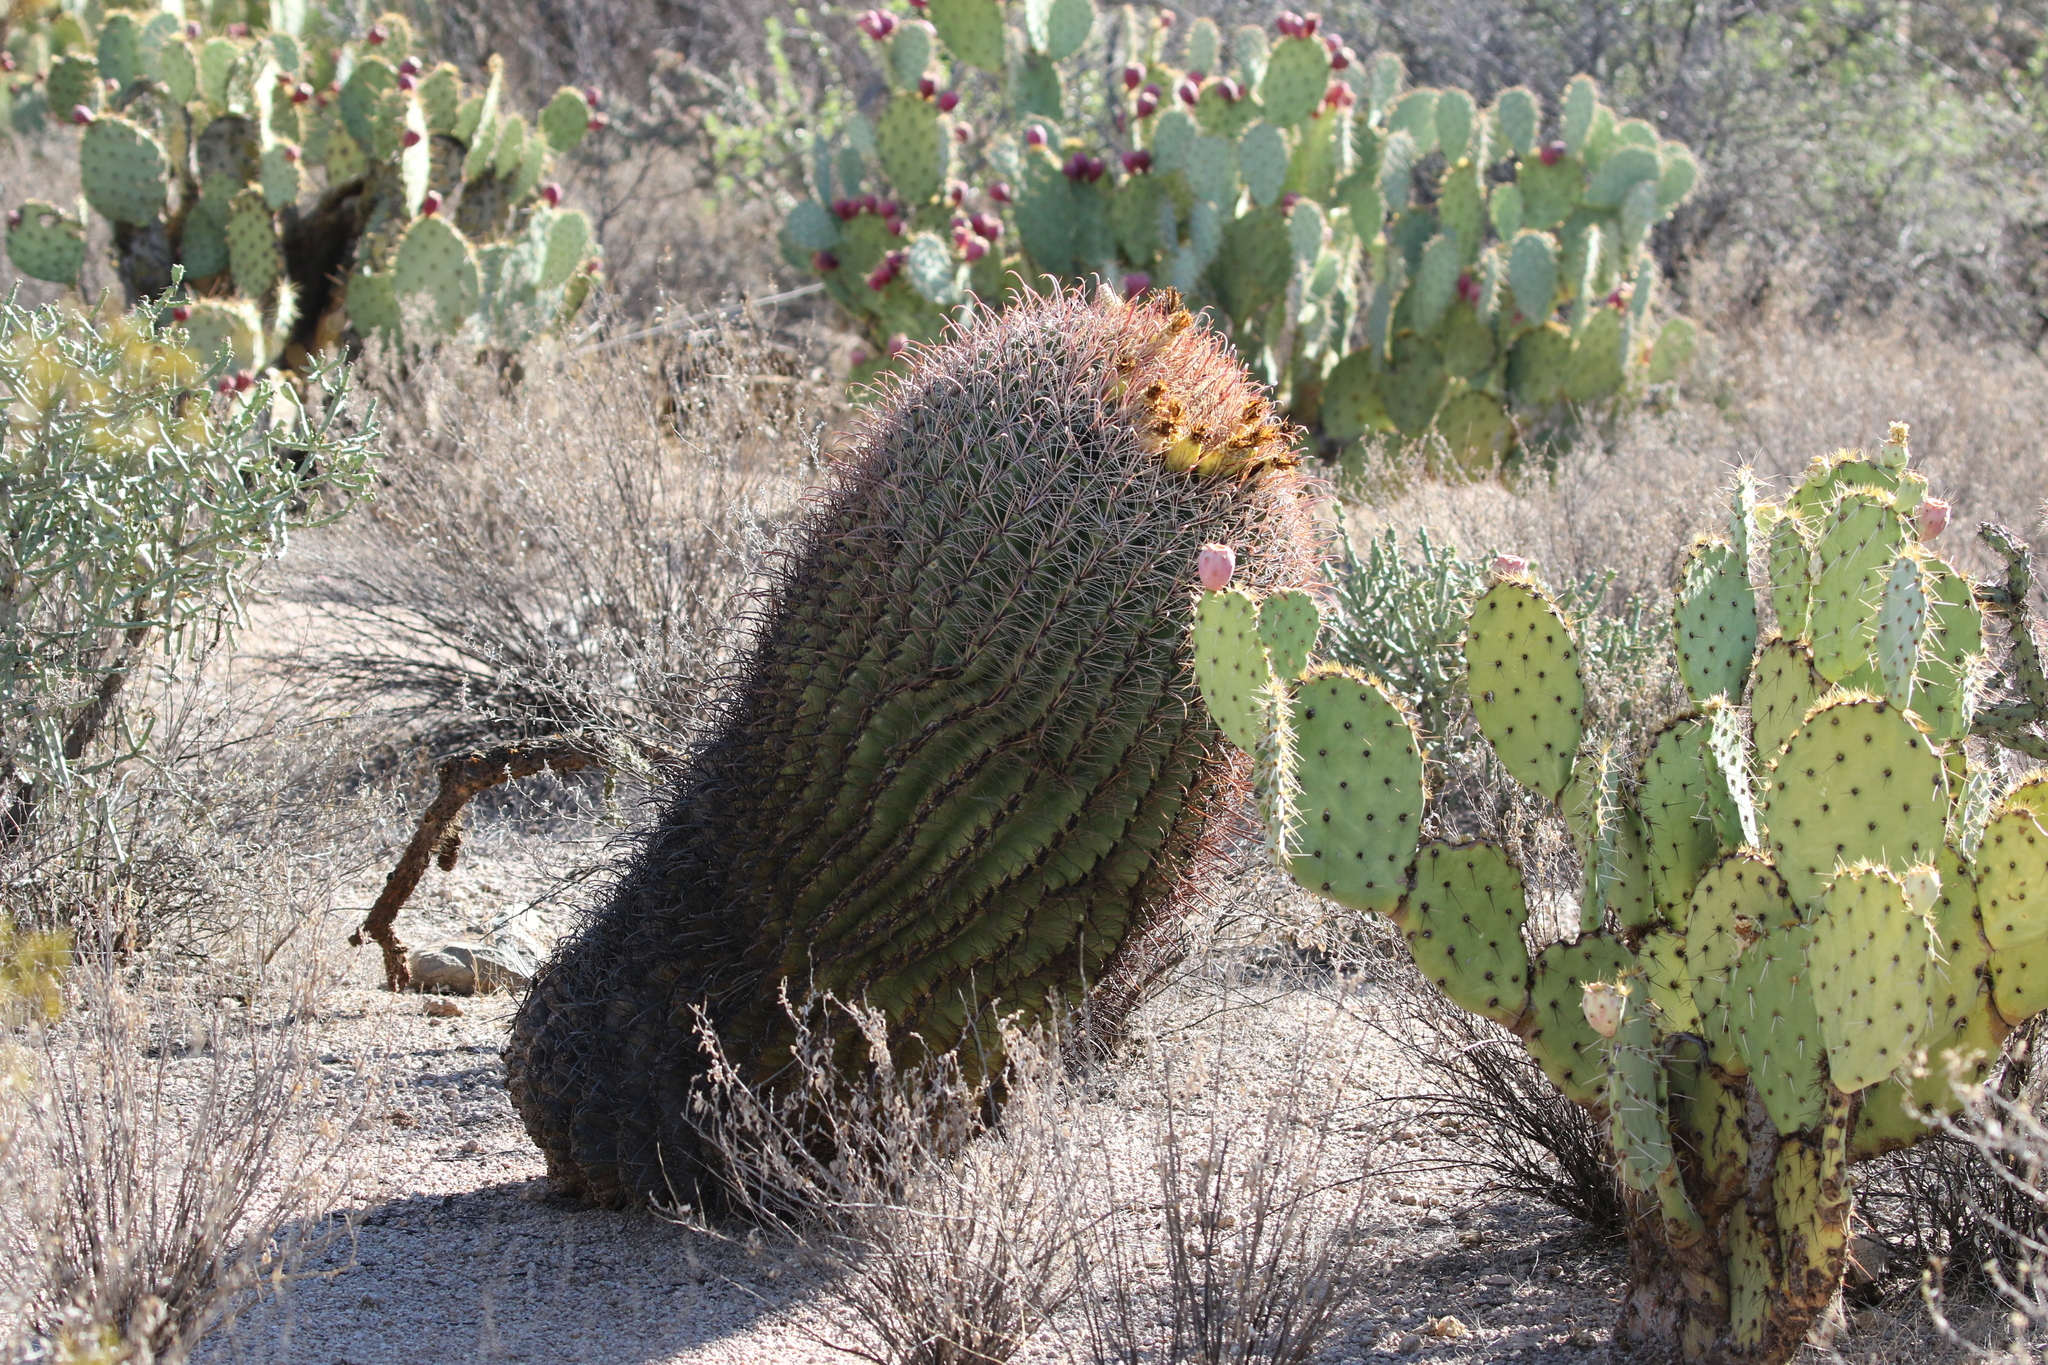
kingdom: Plantae
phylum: Tracheophyta
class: Magnoliopsida
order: Caryophyllales
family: Cactaceae
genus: Ferocactus
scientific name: Ferocactus wislizeni
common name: Candy barrel cactus
